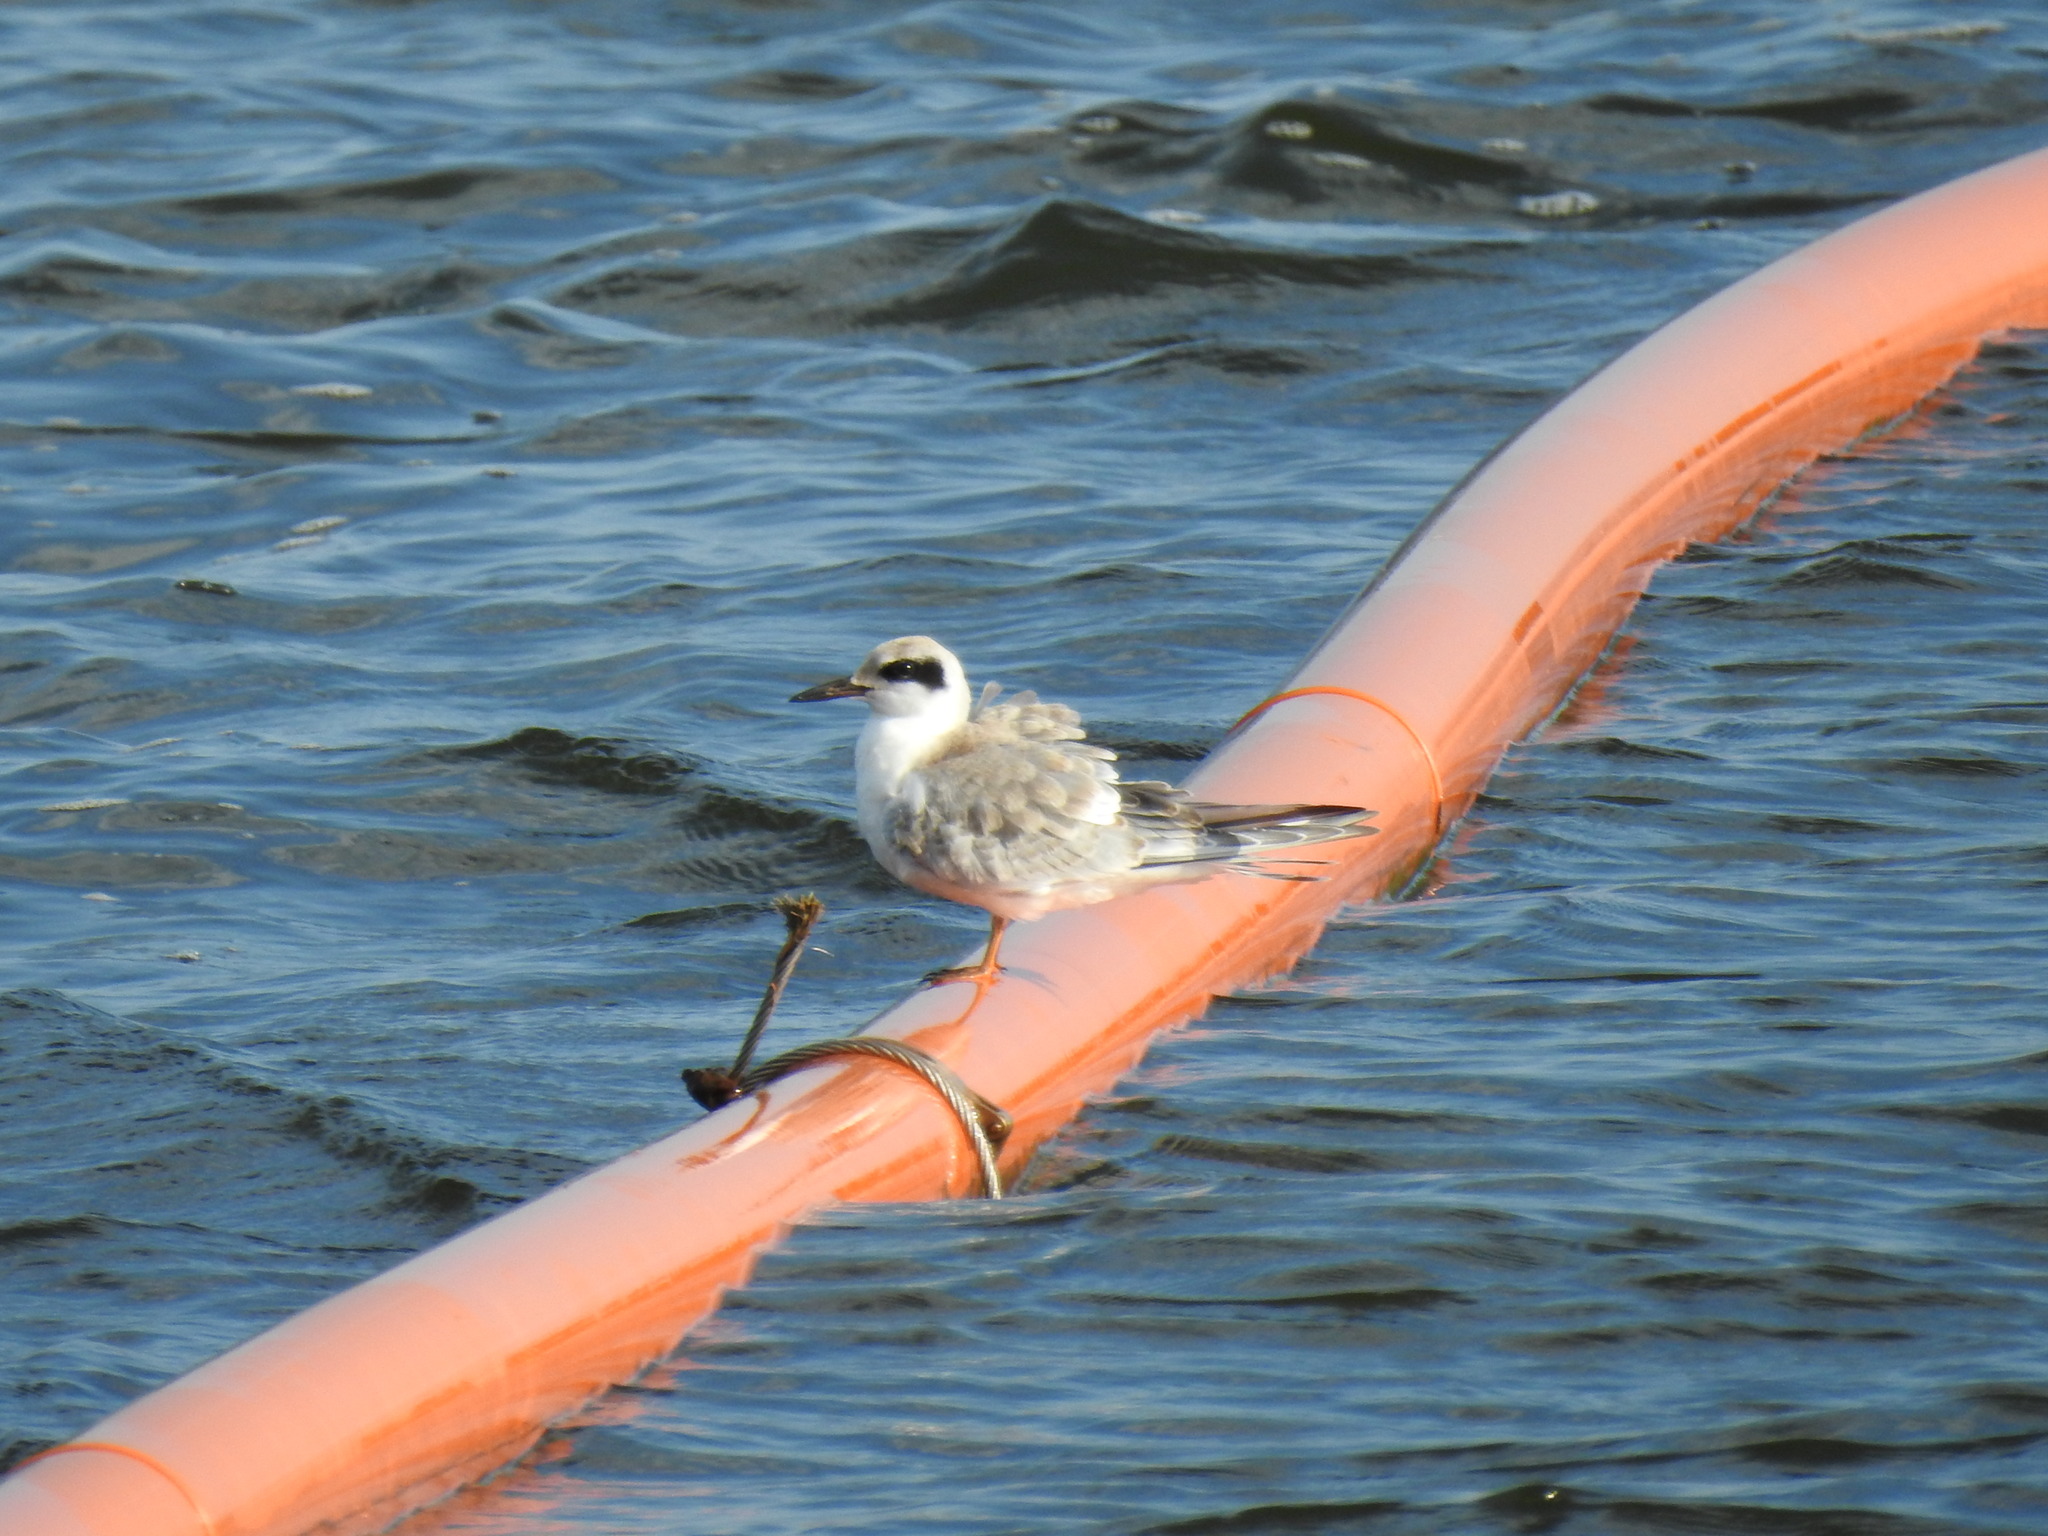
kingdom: Animalia
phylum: Chordata
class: Aves
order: Charadriiformes
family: Laridae
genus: Sterna
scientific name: Sterna forsteri
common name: Forster's tern
